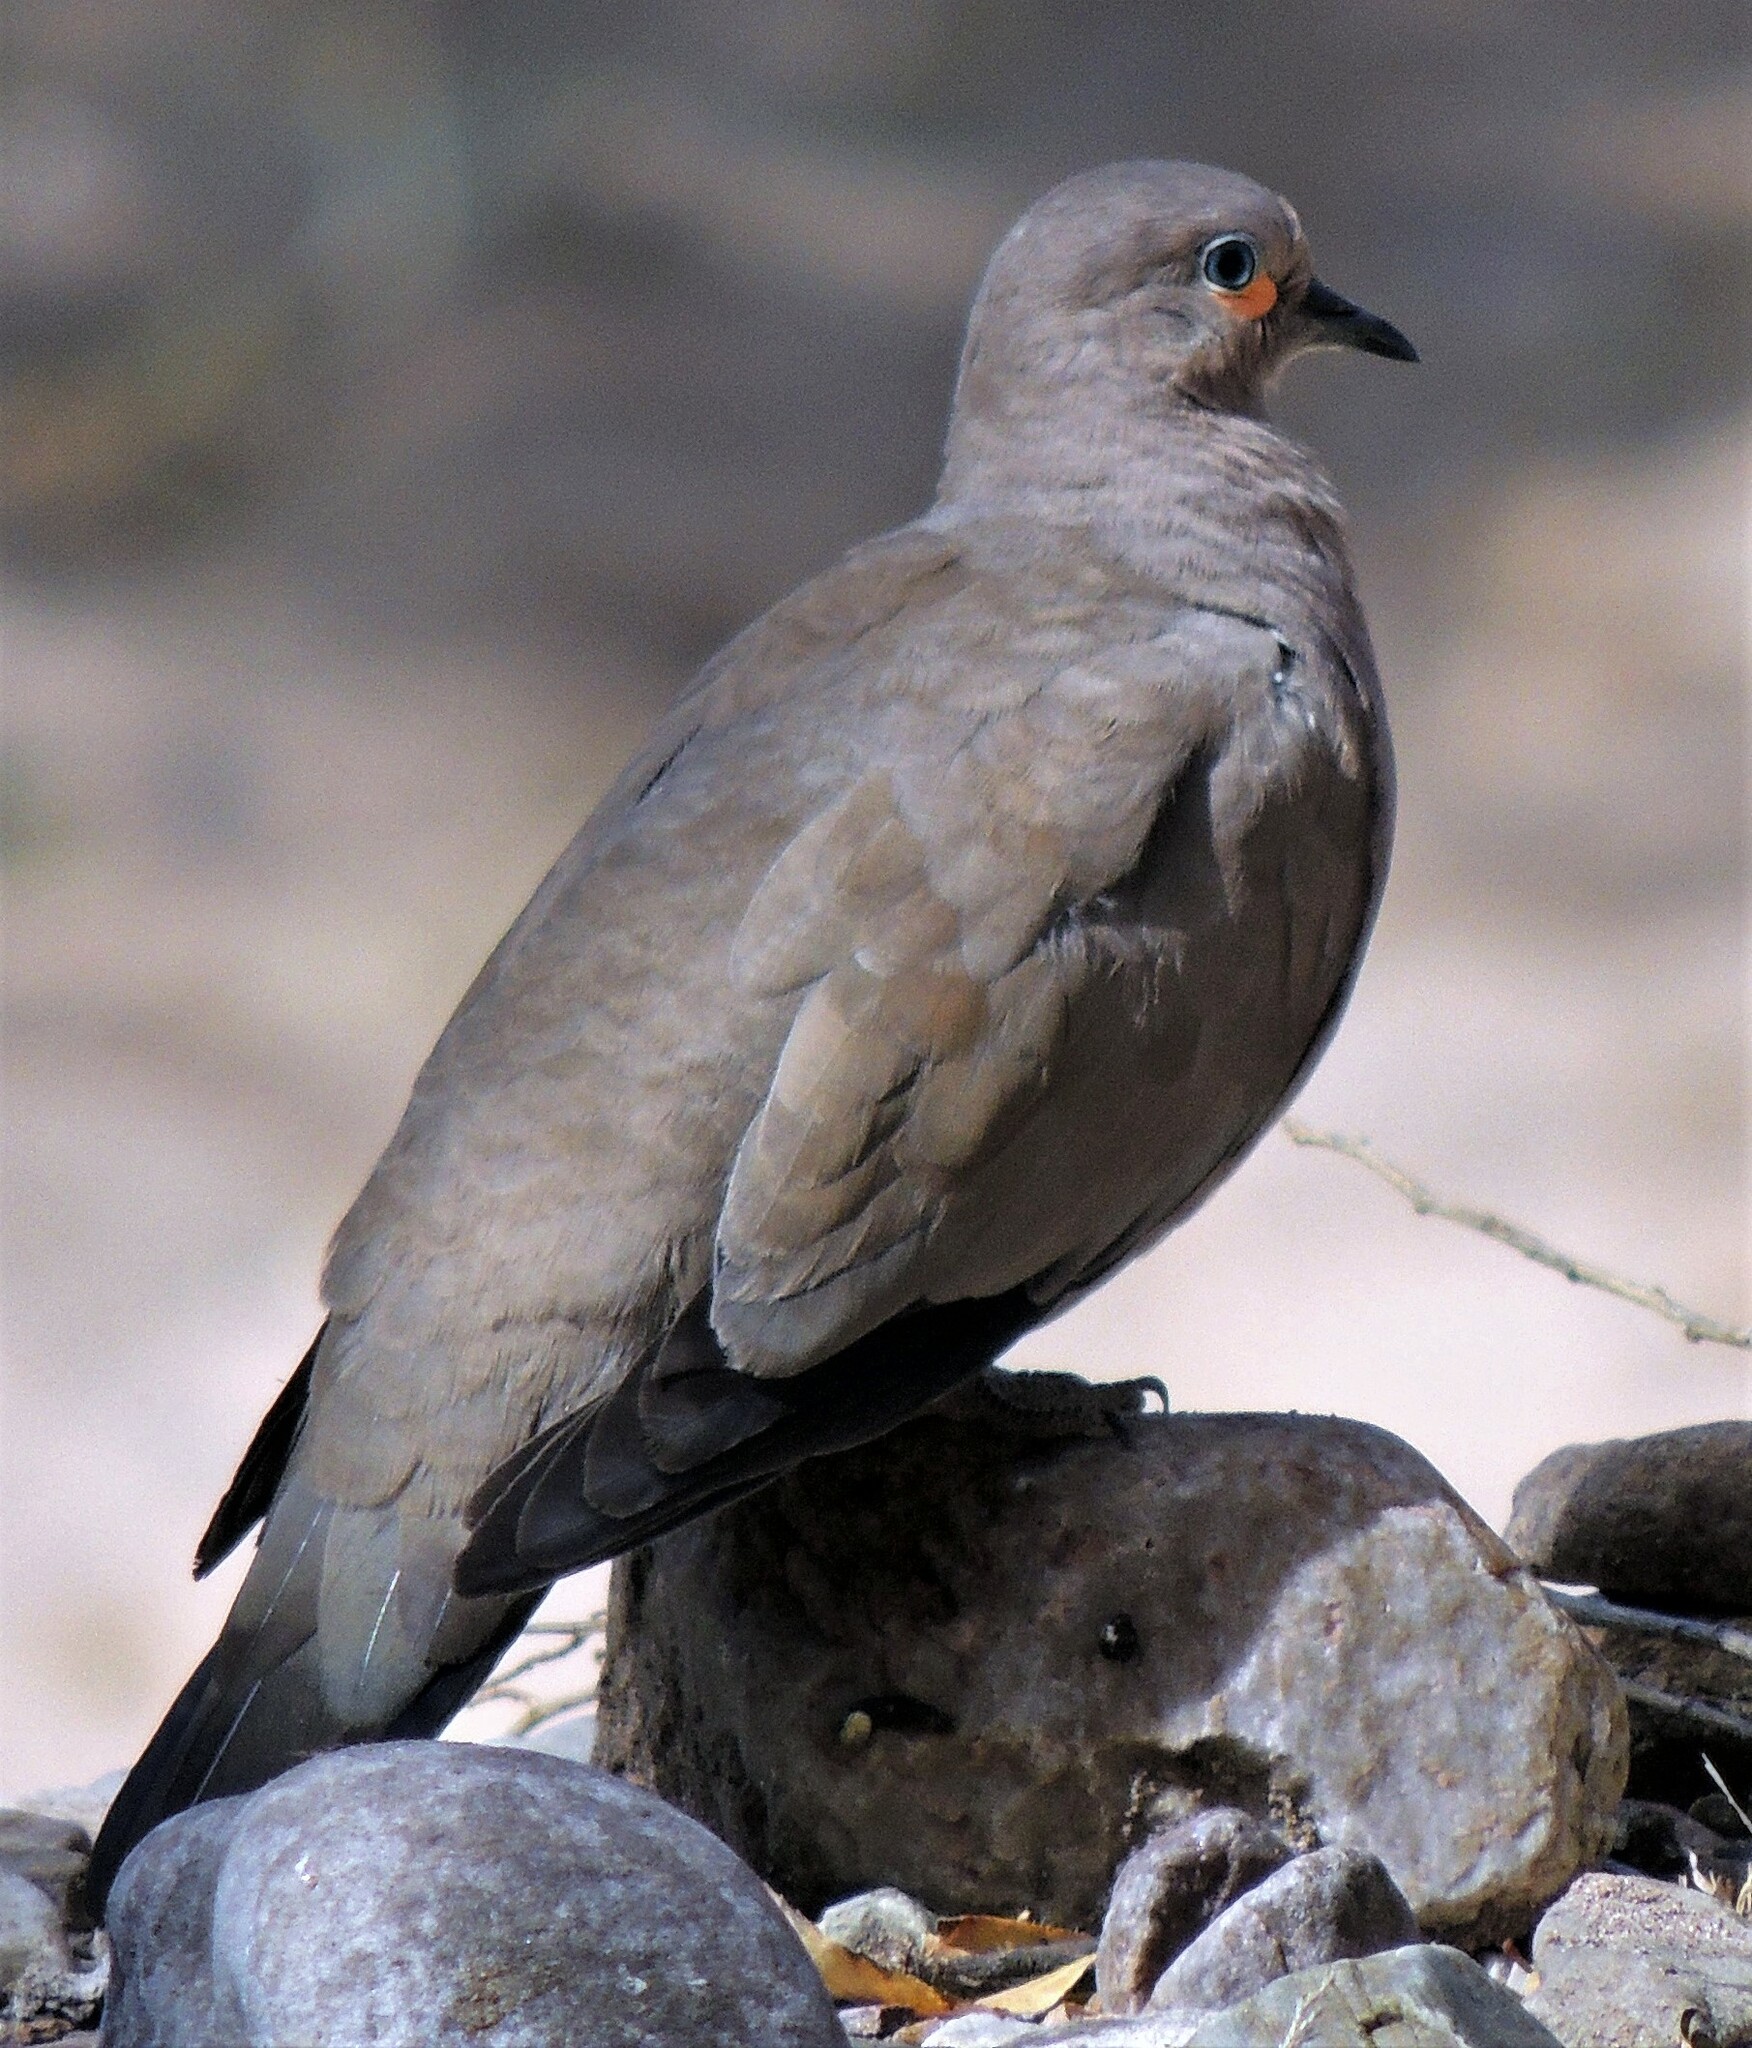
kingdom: Animalia
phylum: Chordata
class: Aves
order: Columbiformes
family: Columbidae
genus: Metriopelia
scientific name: Metriopelia melanoptera
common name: Black-winged ground dove
